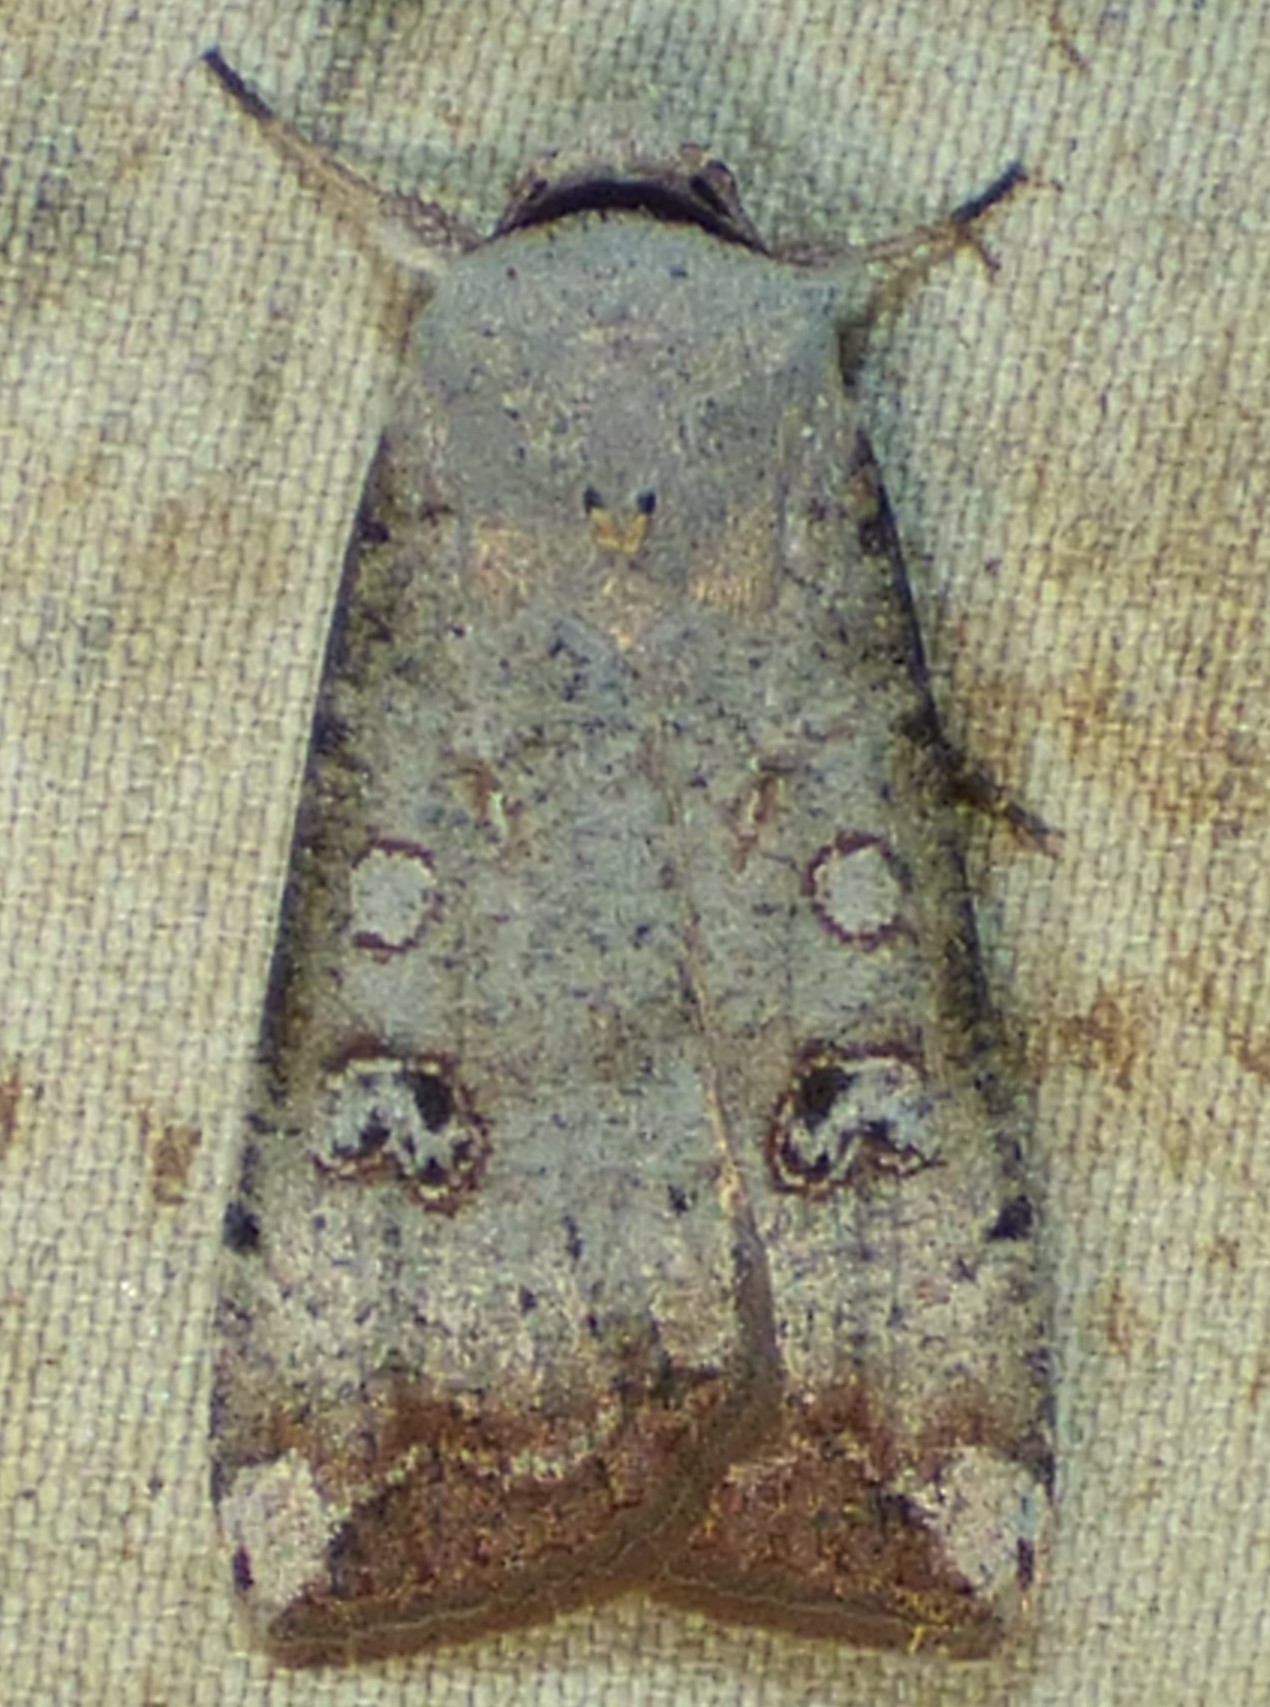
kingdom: Animalia
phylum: Arthropoda
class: Insecta
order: Lepidoptera
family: Noctuidae
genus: Anicla
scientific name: Anicla infecta
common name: Green cutworm
